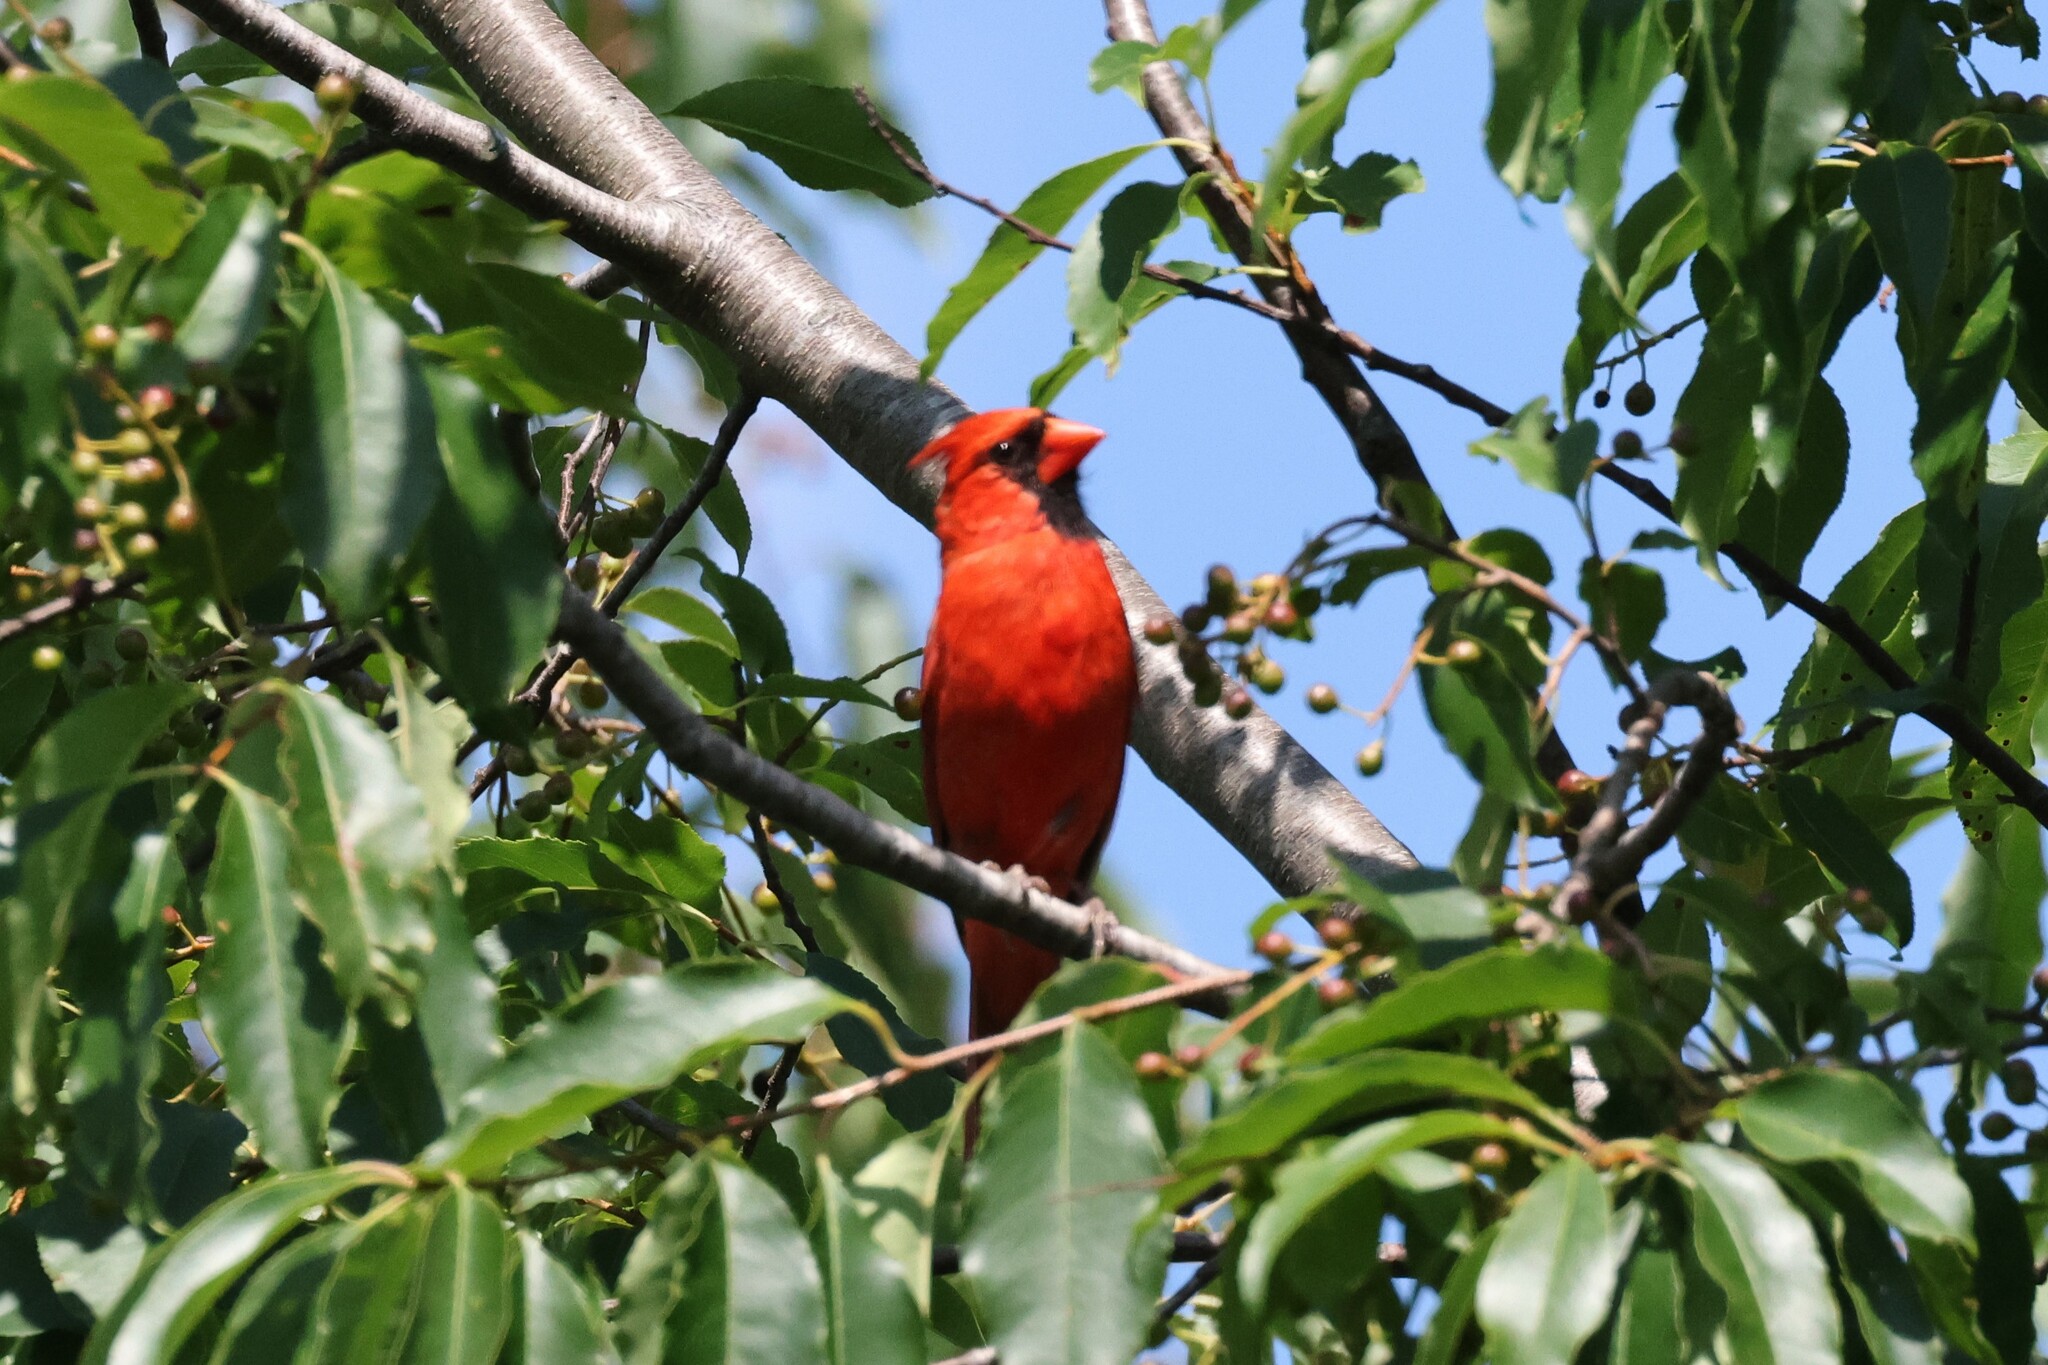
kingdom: Animalia
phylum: Chordata
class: Aves
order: Passeriformes
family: Cardinalidae
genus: Cardinalis
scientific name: Cardinalis cardinalis
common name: Northern cardinal
